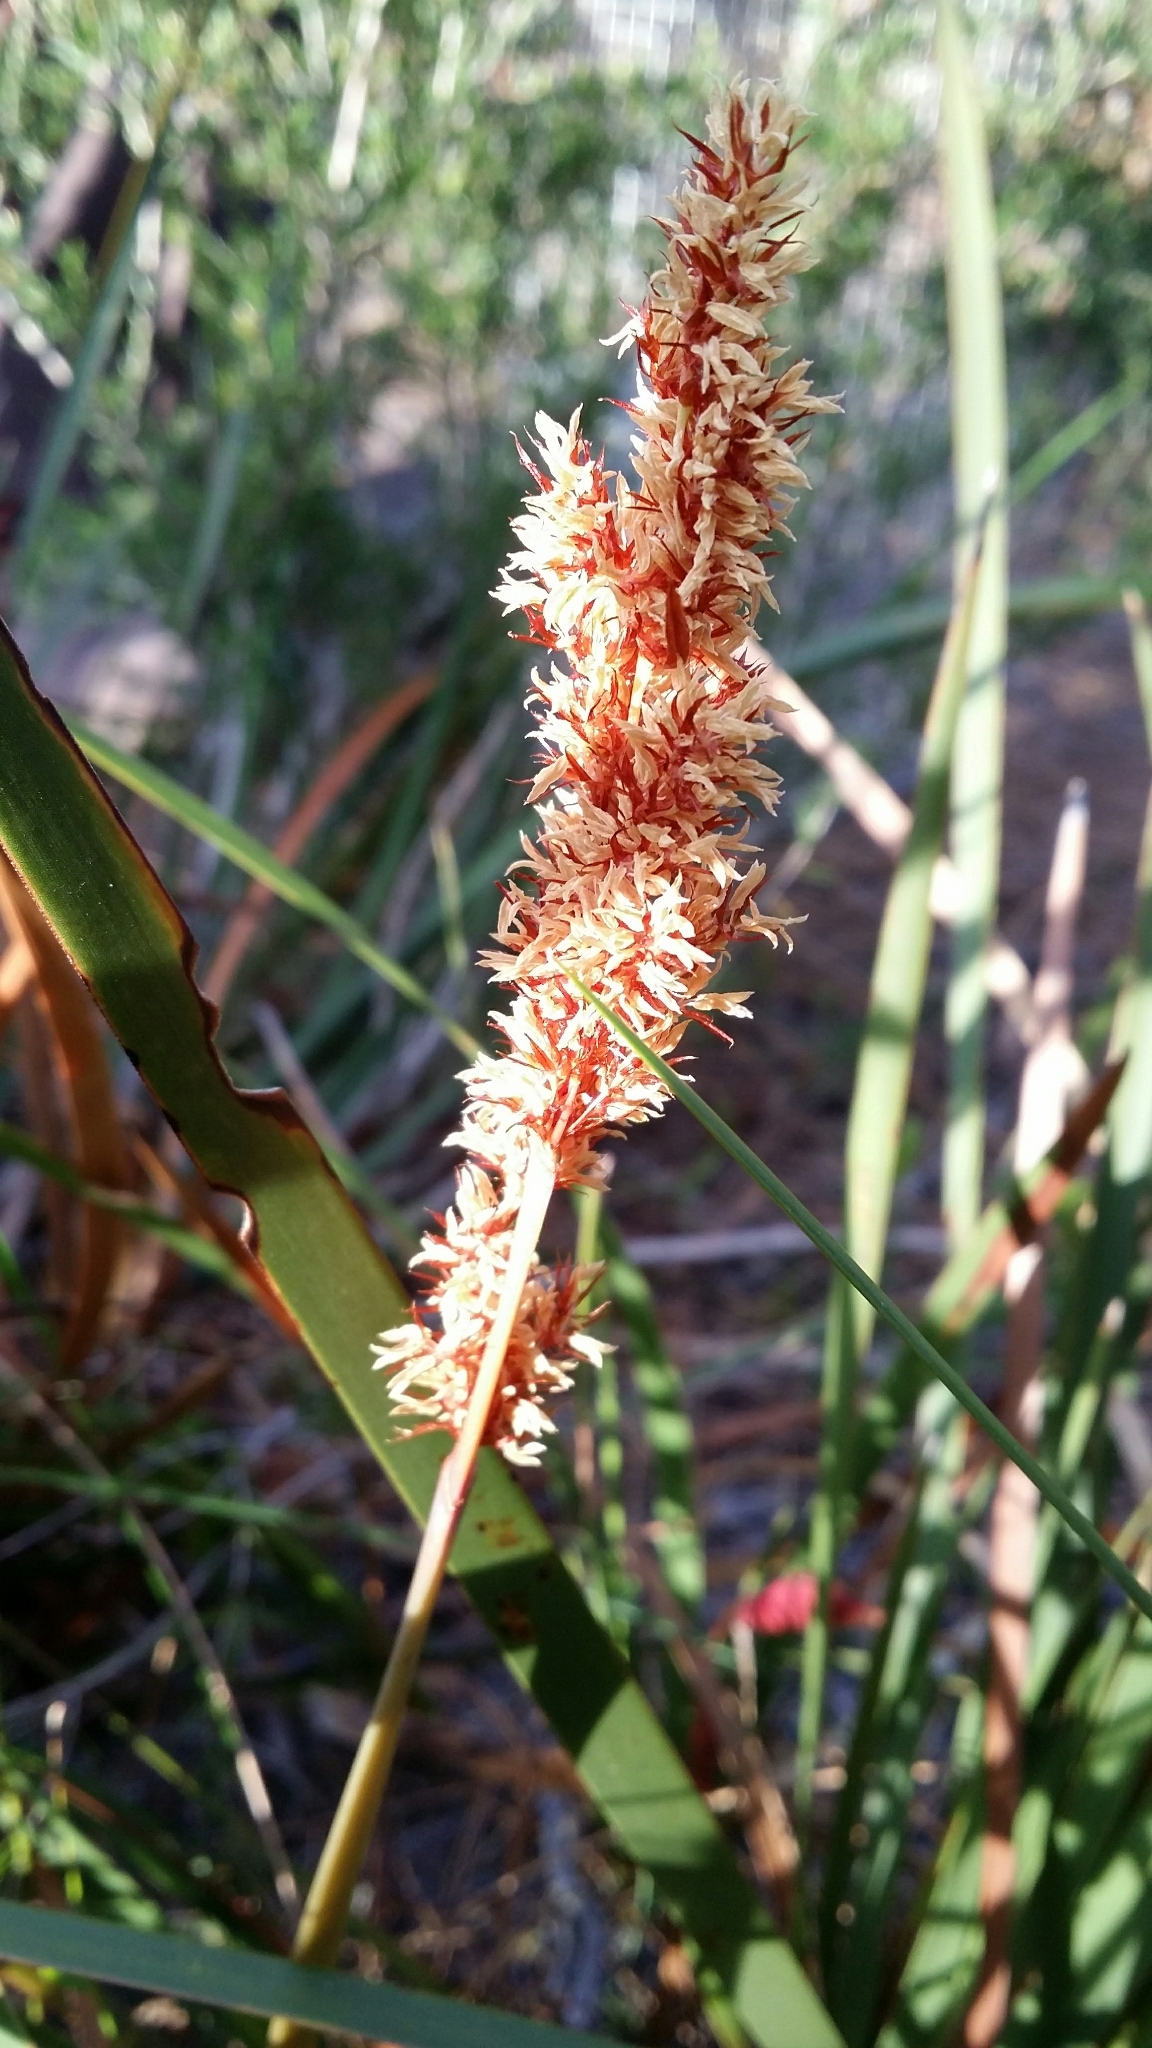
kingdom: Plantae
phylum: Tracheophyta
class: Liliopsida
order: Poales
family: Restionaceae
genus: Anarthria
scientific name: Anarthria scabra
